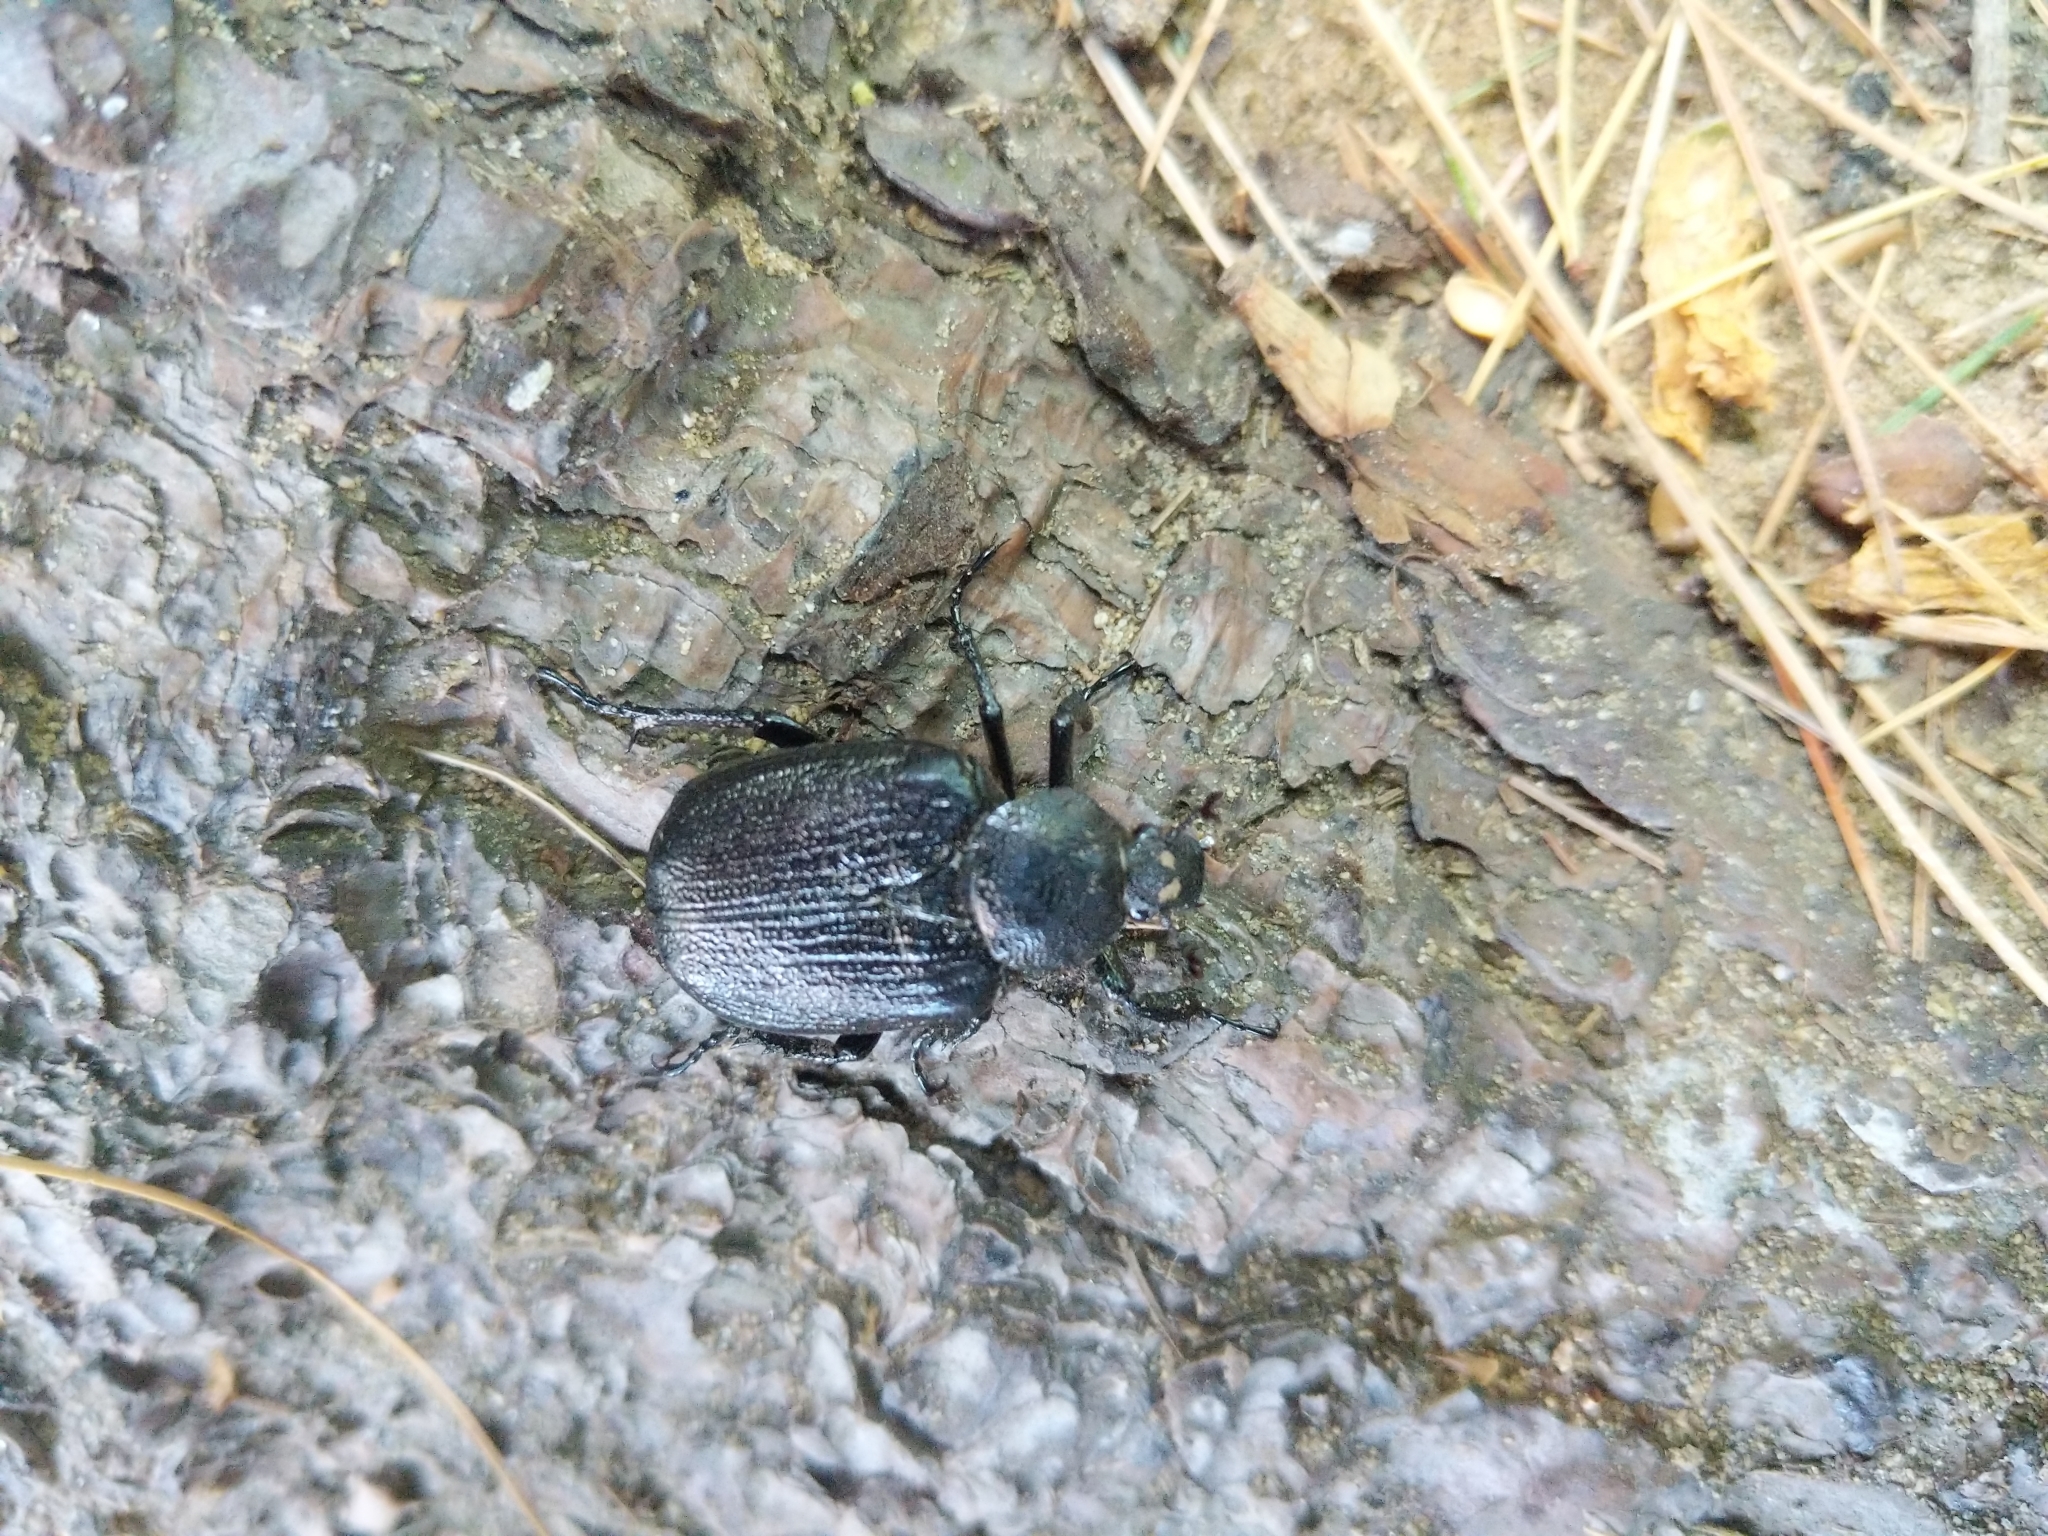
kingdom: Animalia
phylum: Arthropoda
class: Insecta
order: Coleoptera
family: Scarabaeidae
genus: Osmoderma
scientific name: Osmoderma scabra
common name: Rough hermit beetle
